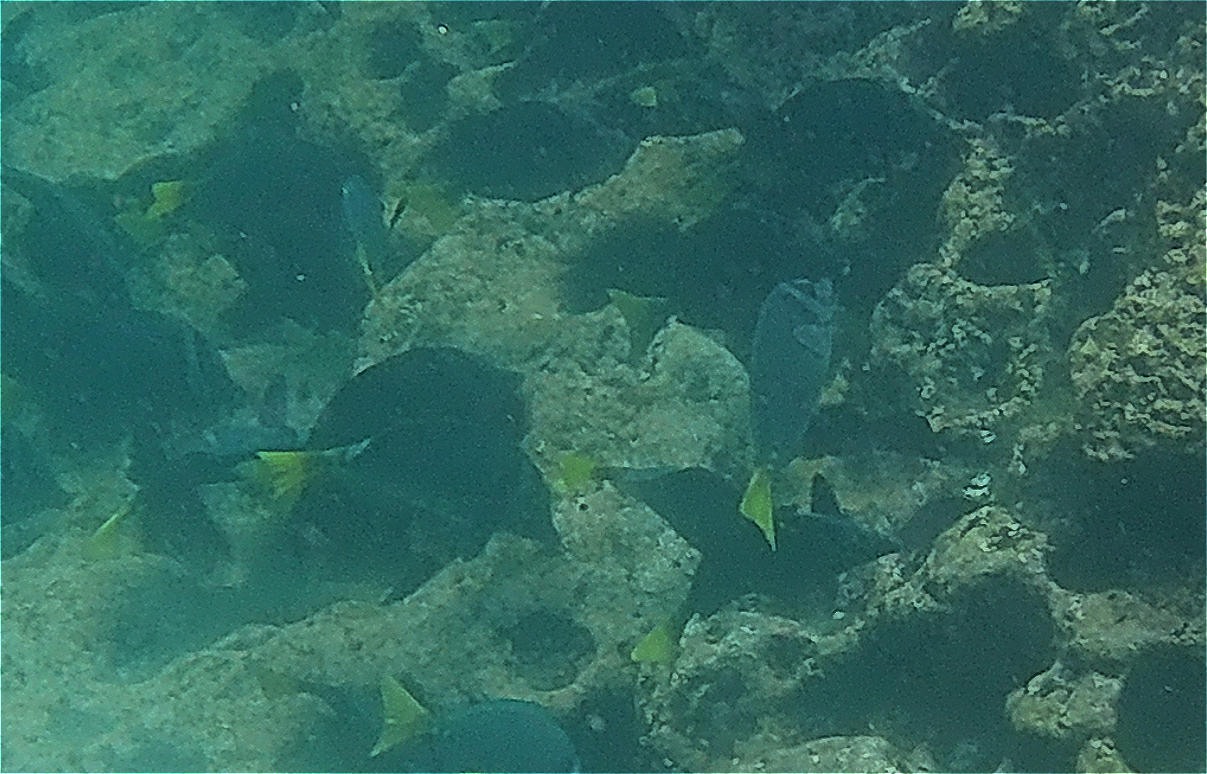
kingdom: Animalia
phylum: Chordata
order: Perciformes
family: Acanthuridae
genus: Prionurus
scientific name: Prionurus laticlavius
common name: Razor surgeonfish
